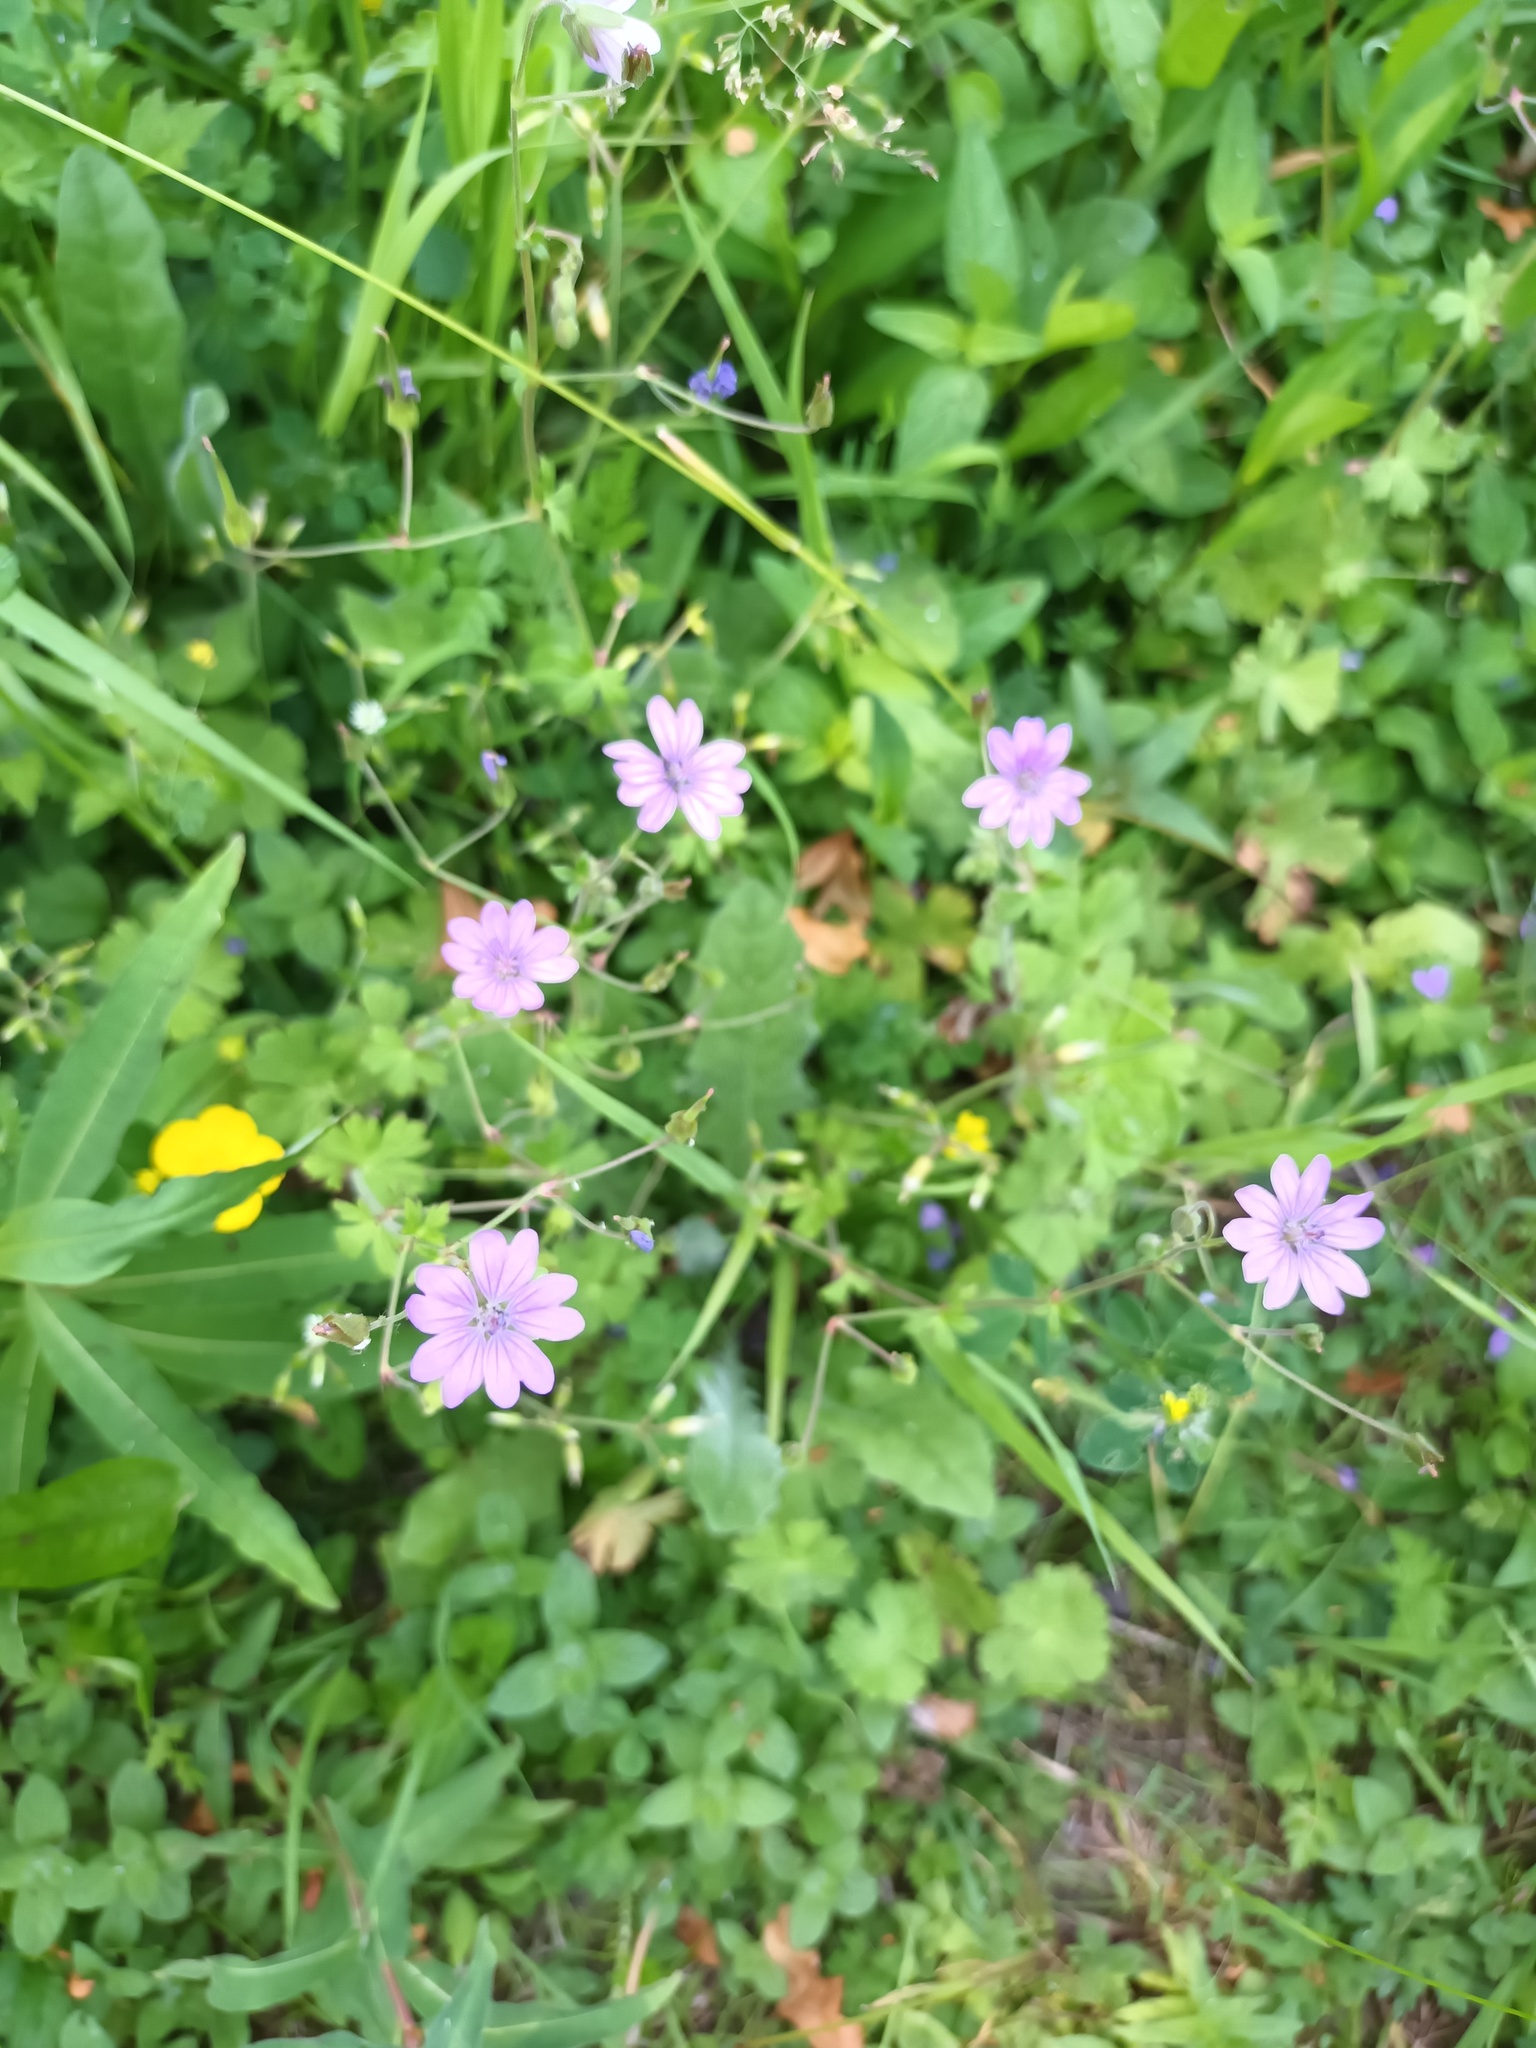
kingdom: Plantae
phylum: Tracheophyta
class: Magnoliopsida
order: Geraniales
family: Geraniaceae
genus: Geranium
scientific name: Geranium pyrenaicum
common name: Hedgerow crane's-bill
